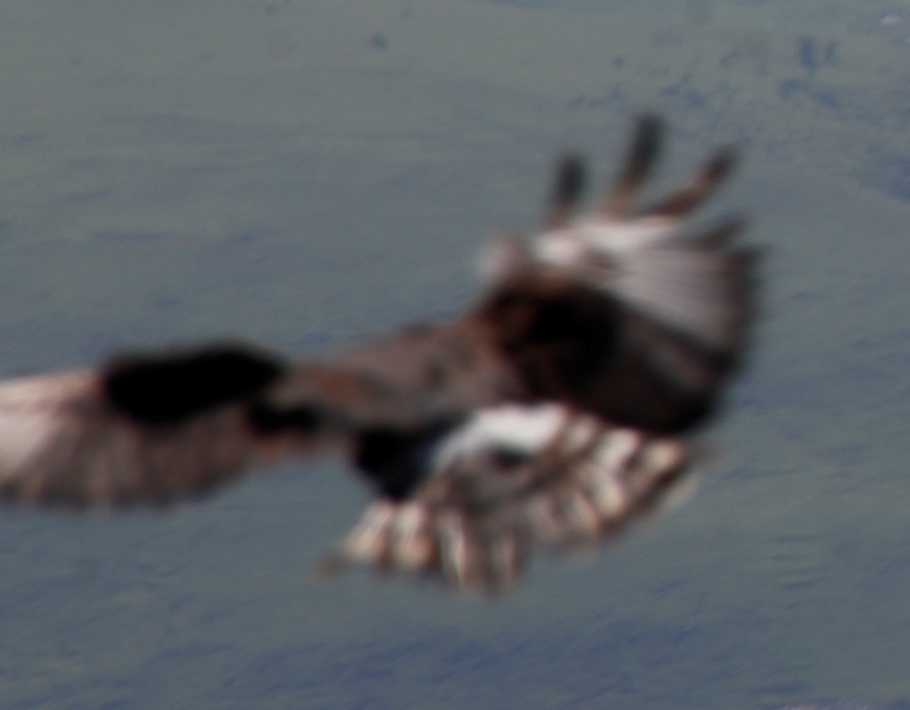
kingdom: Animalia
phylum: Chordata
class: Aves
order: Accipitriformes
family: Accipitridae
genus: Circus
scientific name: Circus maurus
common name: Black harrier
